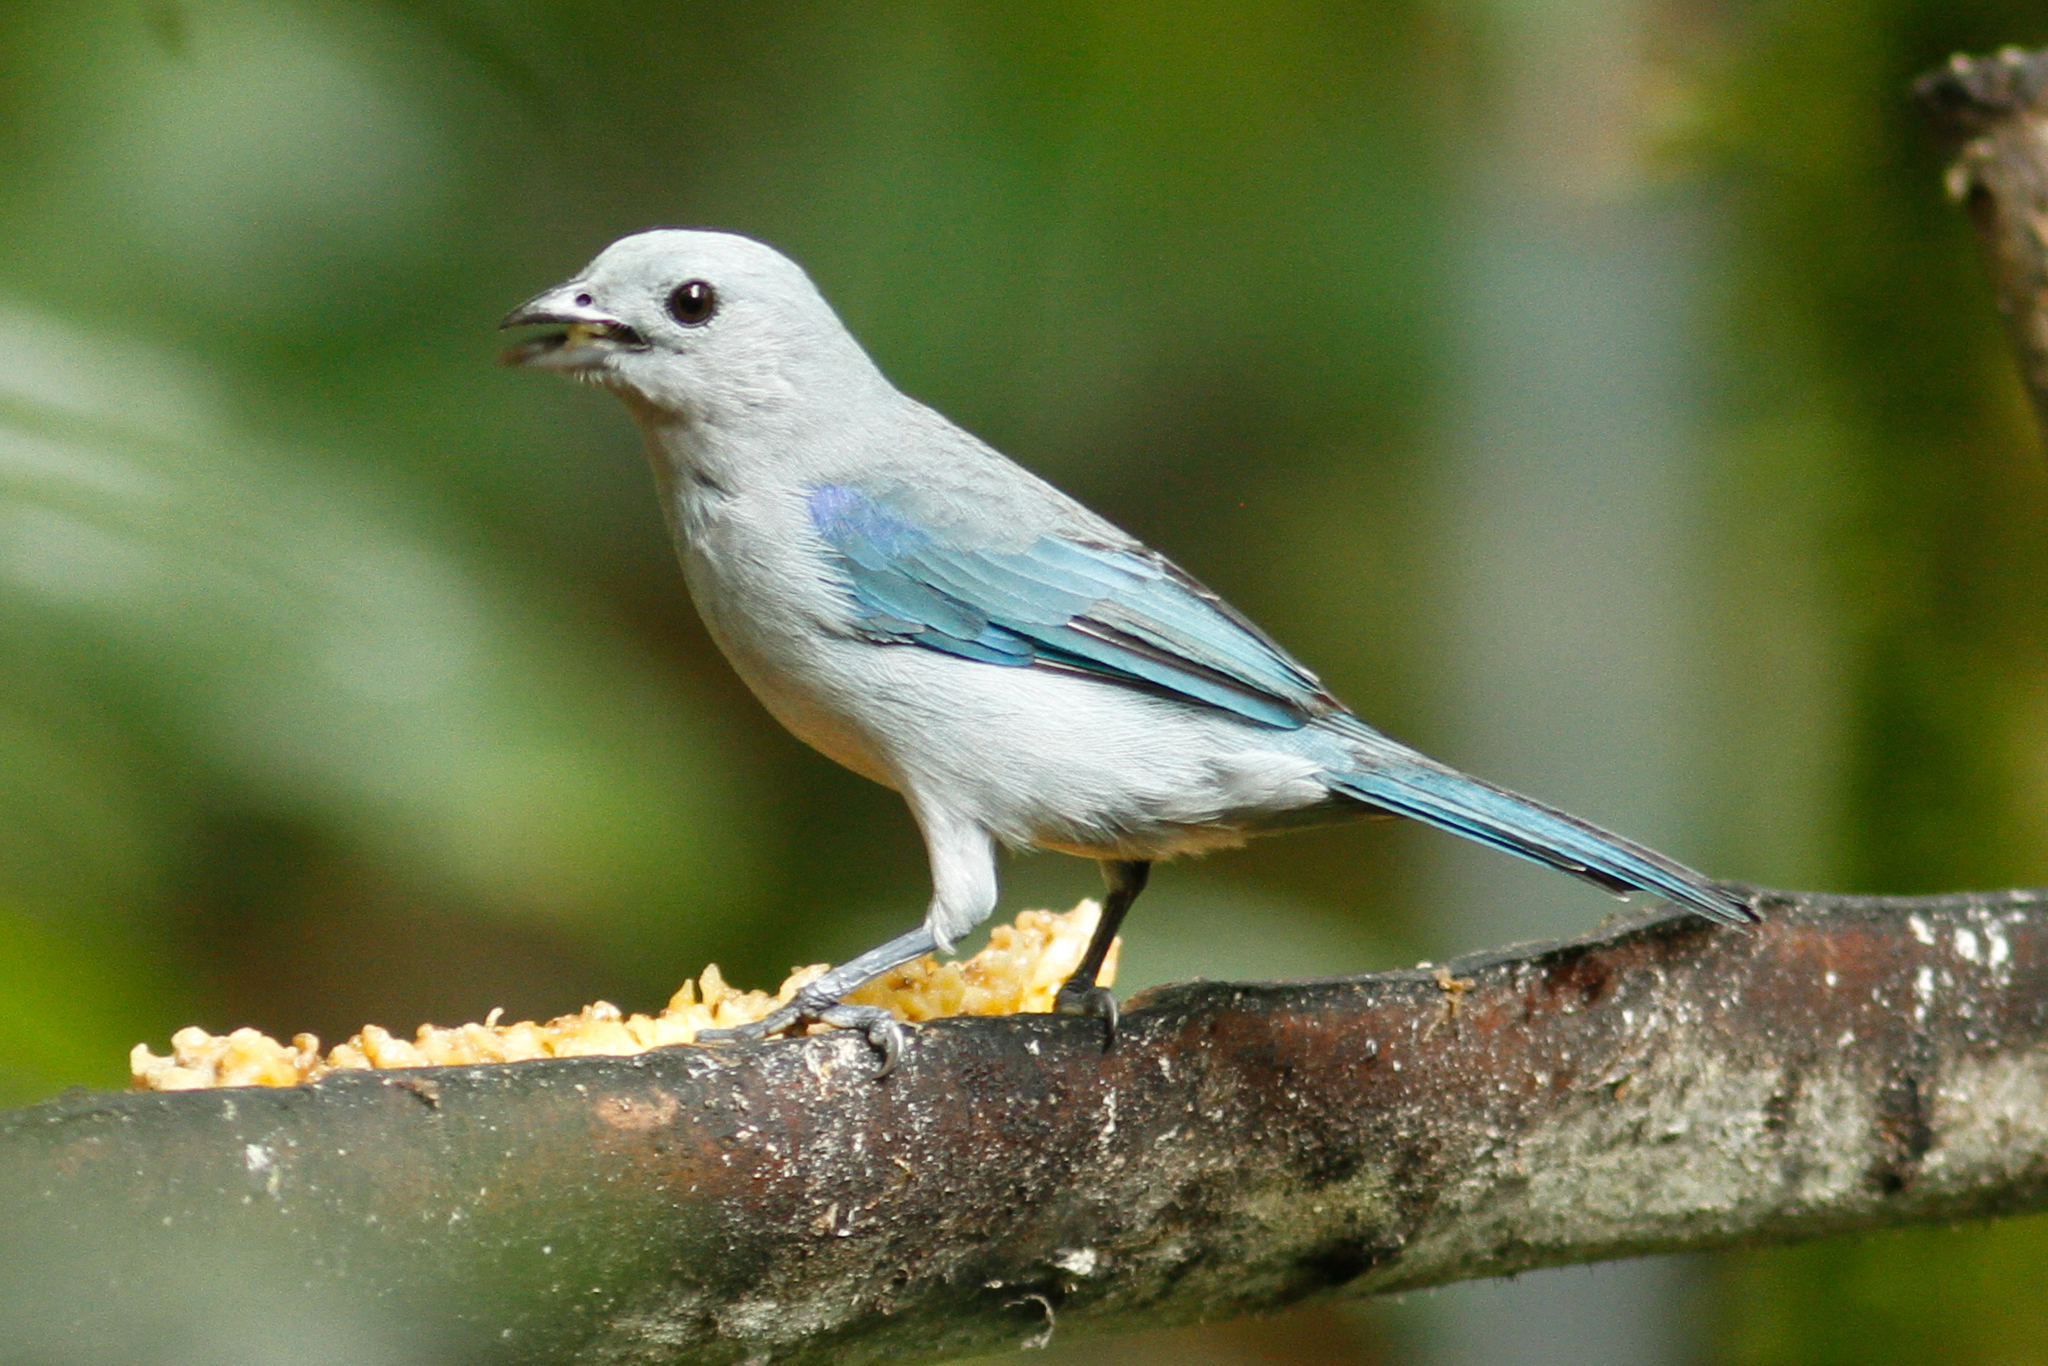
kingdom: Animalia
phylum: Chordata
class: Aves
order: Passeriformes
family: Thraupidae
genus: Thraupis
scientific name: Thraupis episcopus
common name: Blue-grey tanager
